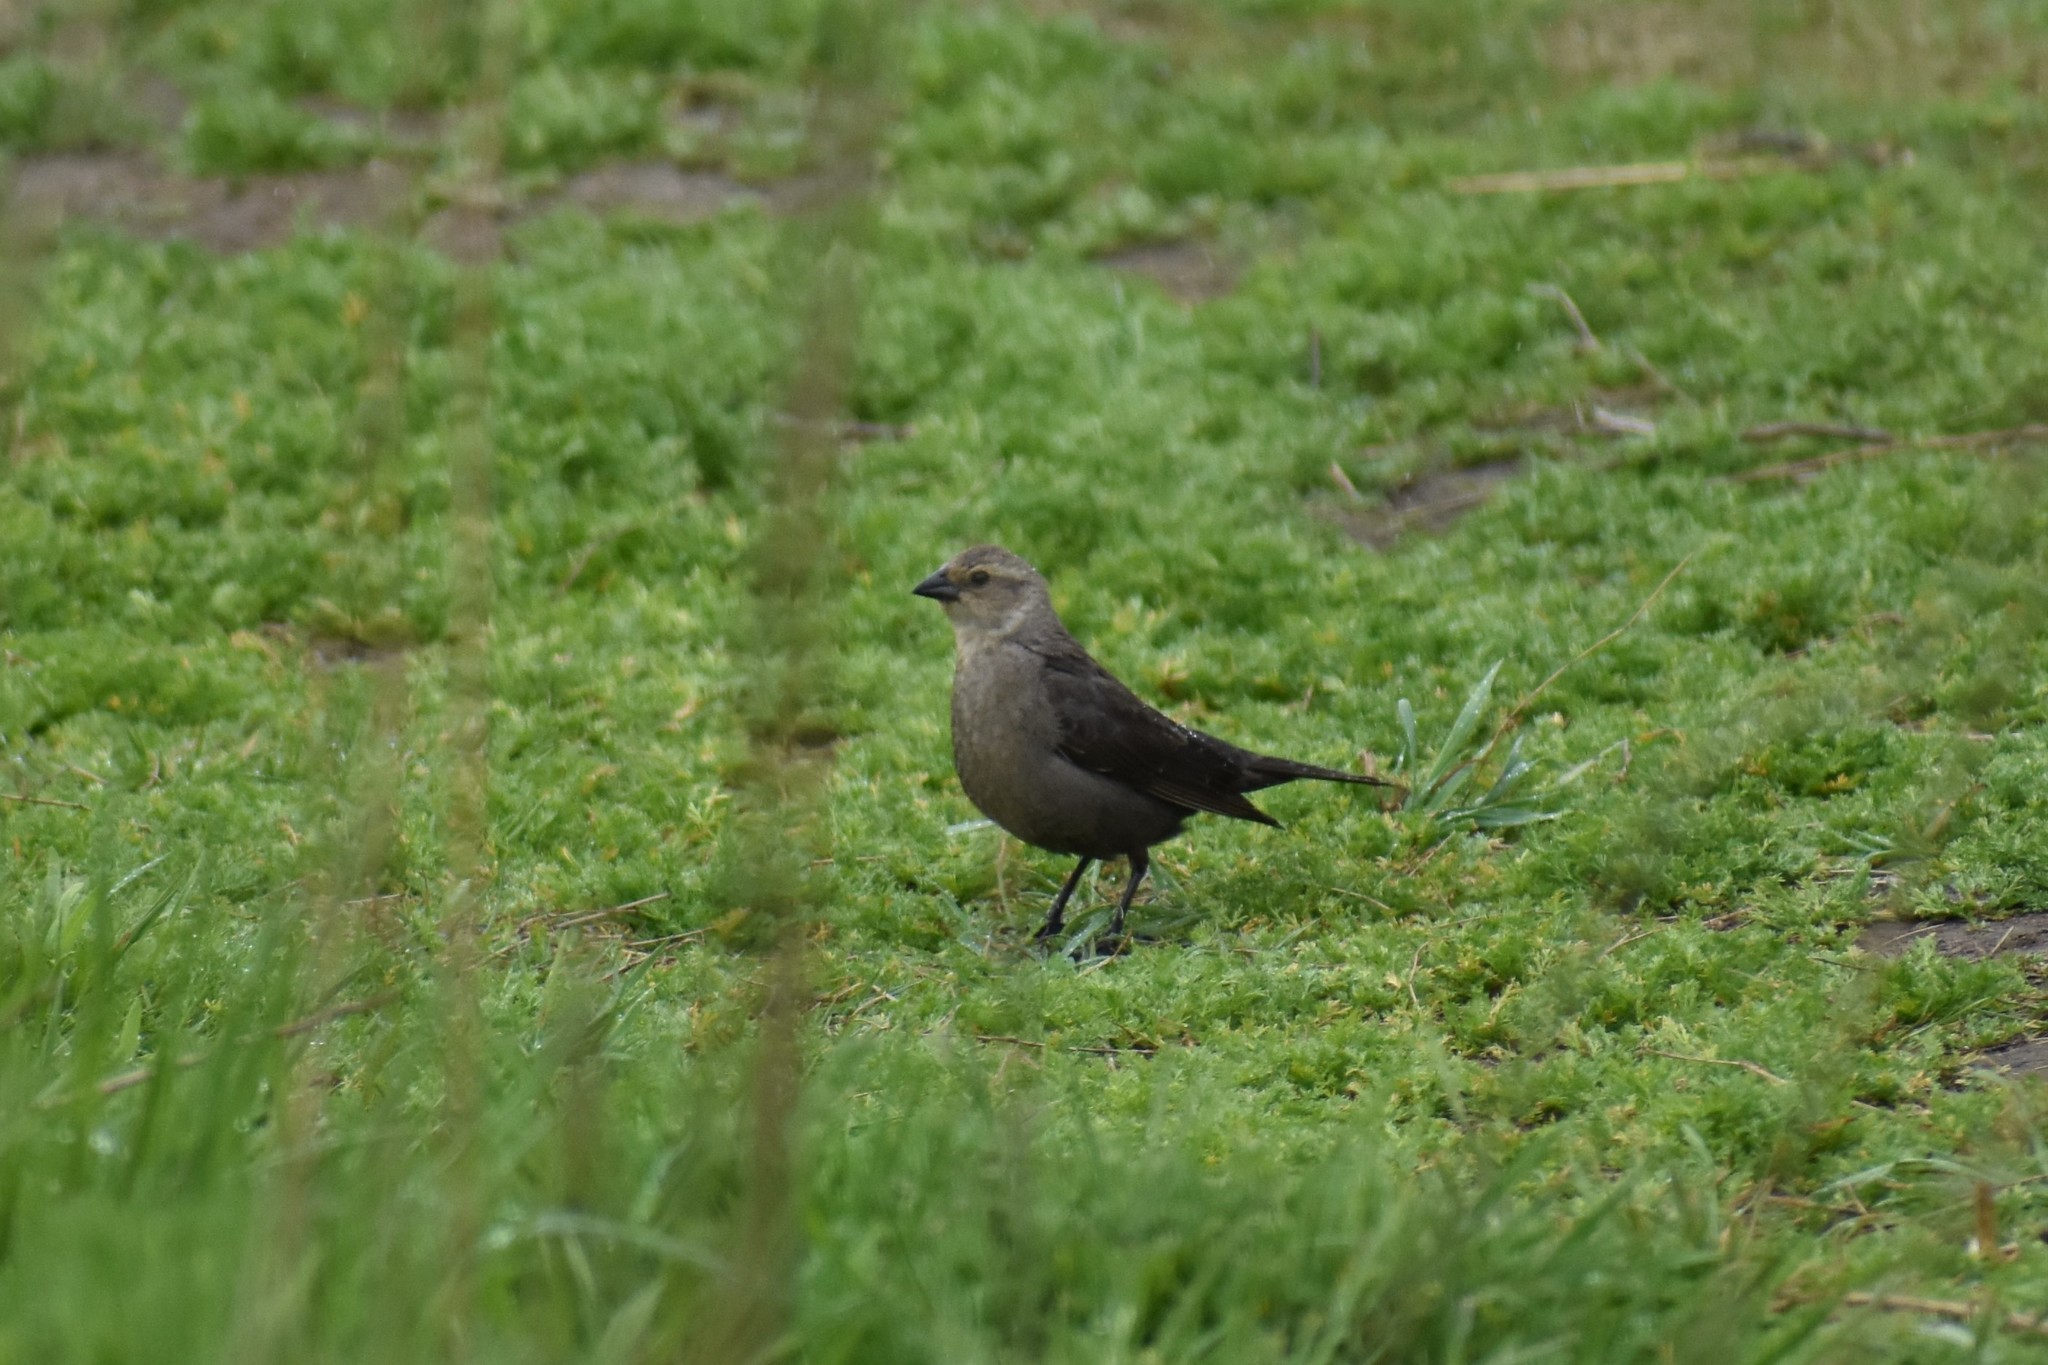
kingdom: Animalia
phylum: Chordata
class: Aves
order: Passeriformes
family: Icteridae
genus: Molothrus
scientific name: Molothrus ater
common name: Brown-headed cowbird
